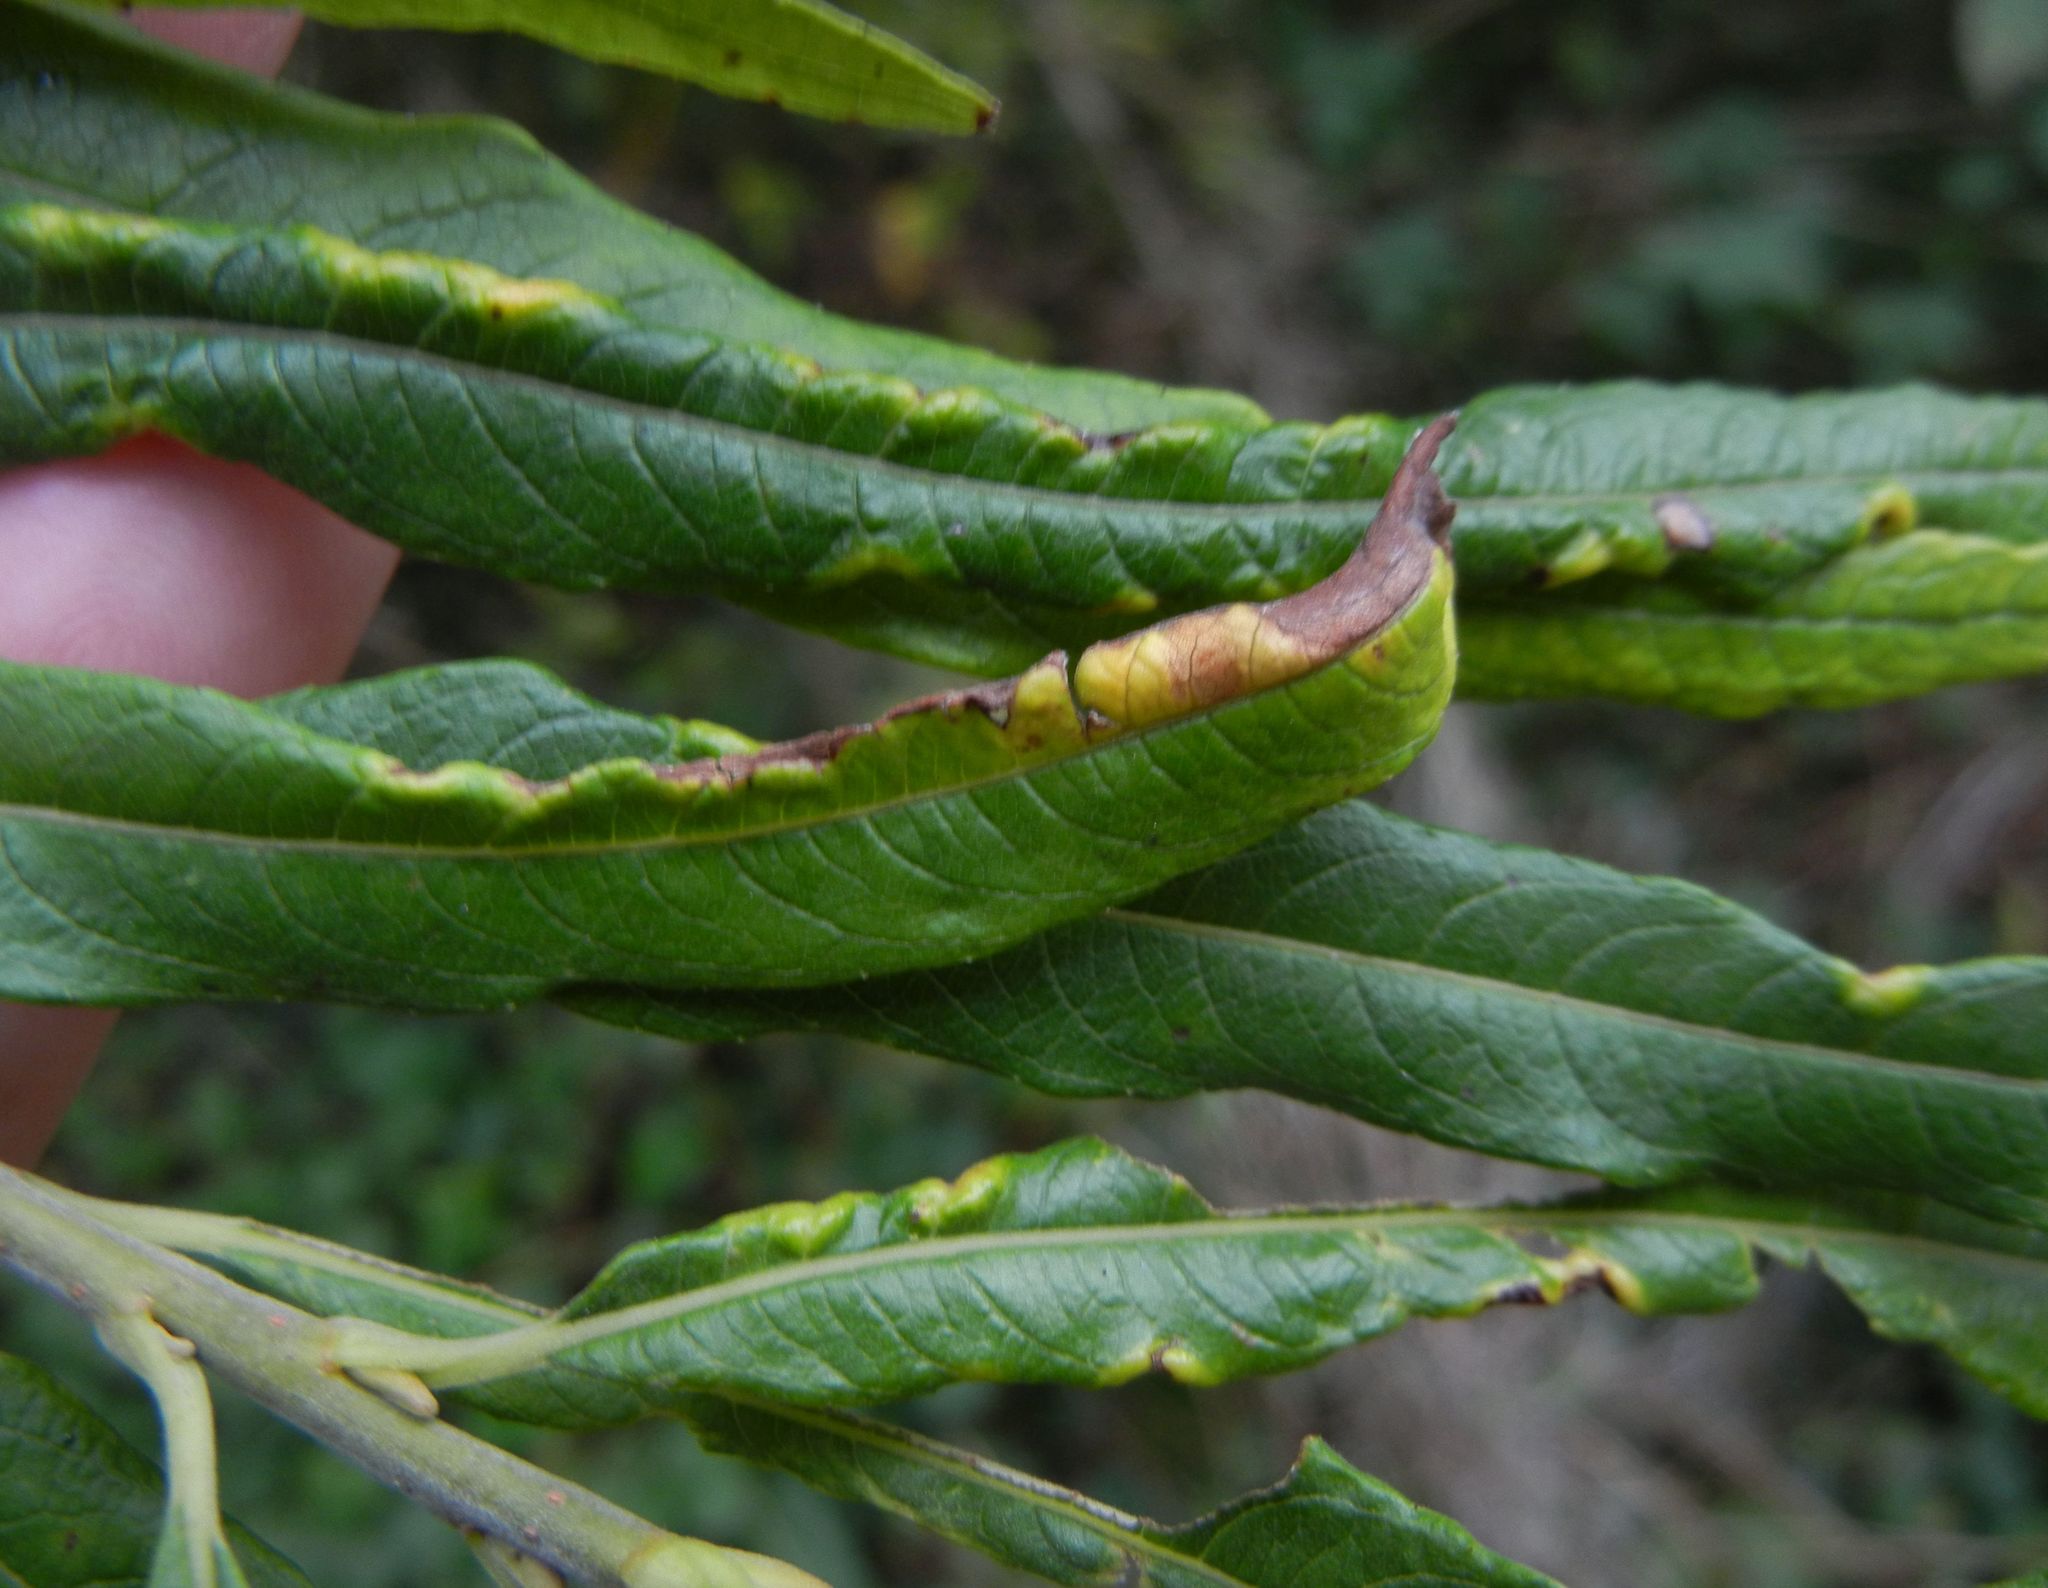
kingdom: Animalia
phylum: Arthropoda
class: Insecta
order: Diptera
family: Cecidomyiidae
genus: Rabdophaga
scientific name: Rabdophaga marginemtorquens
